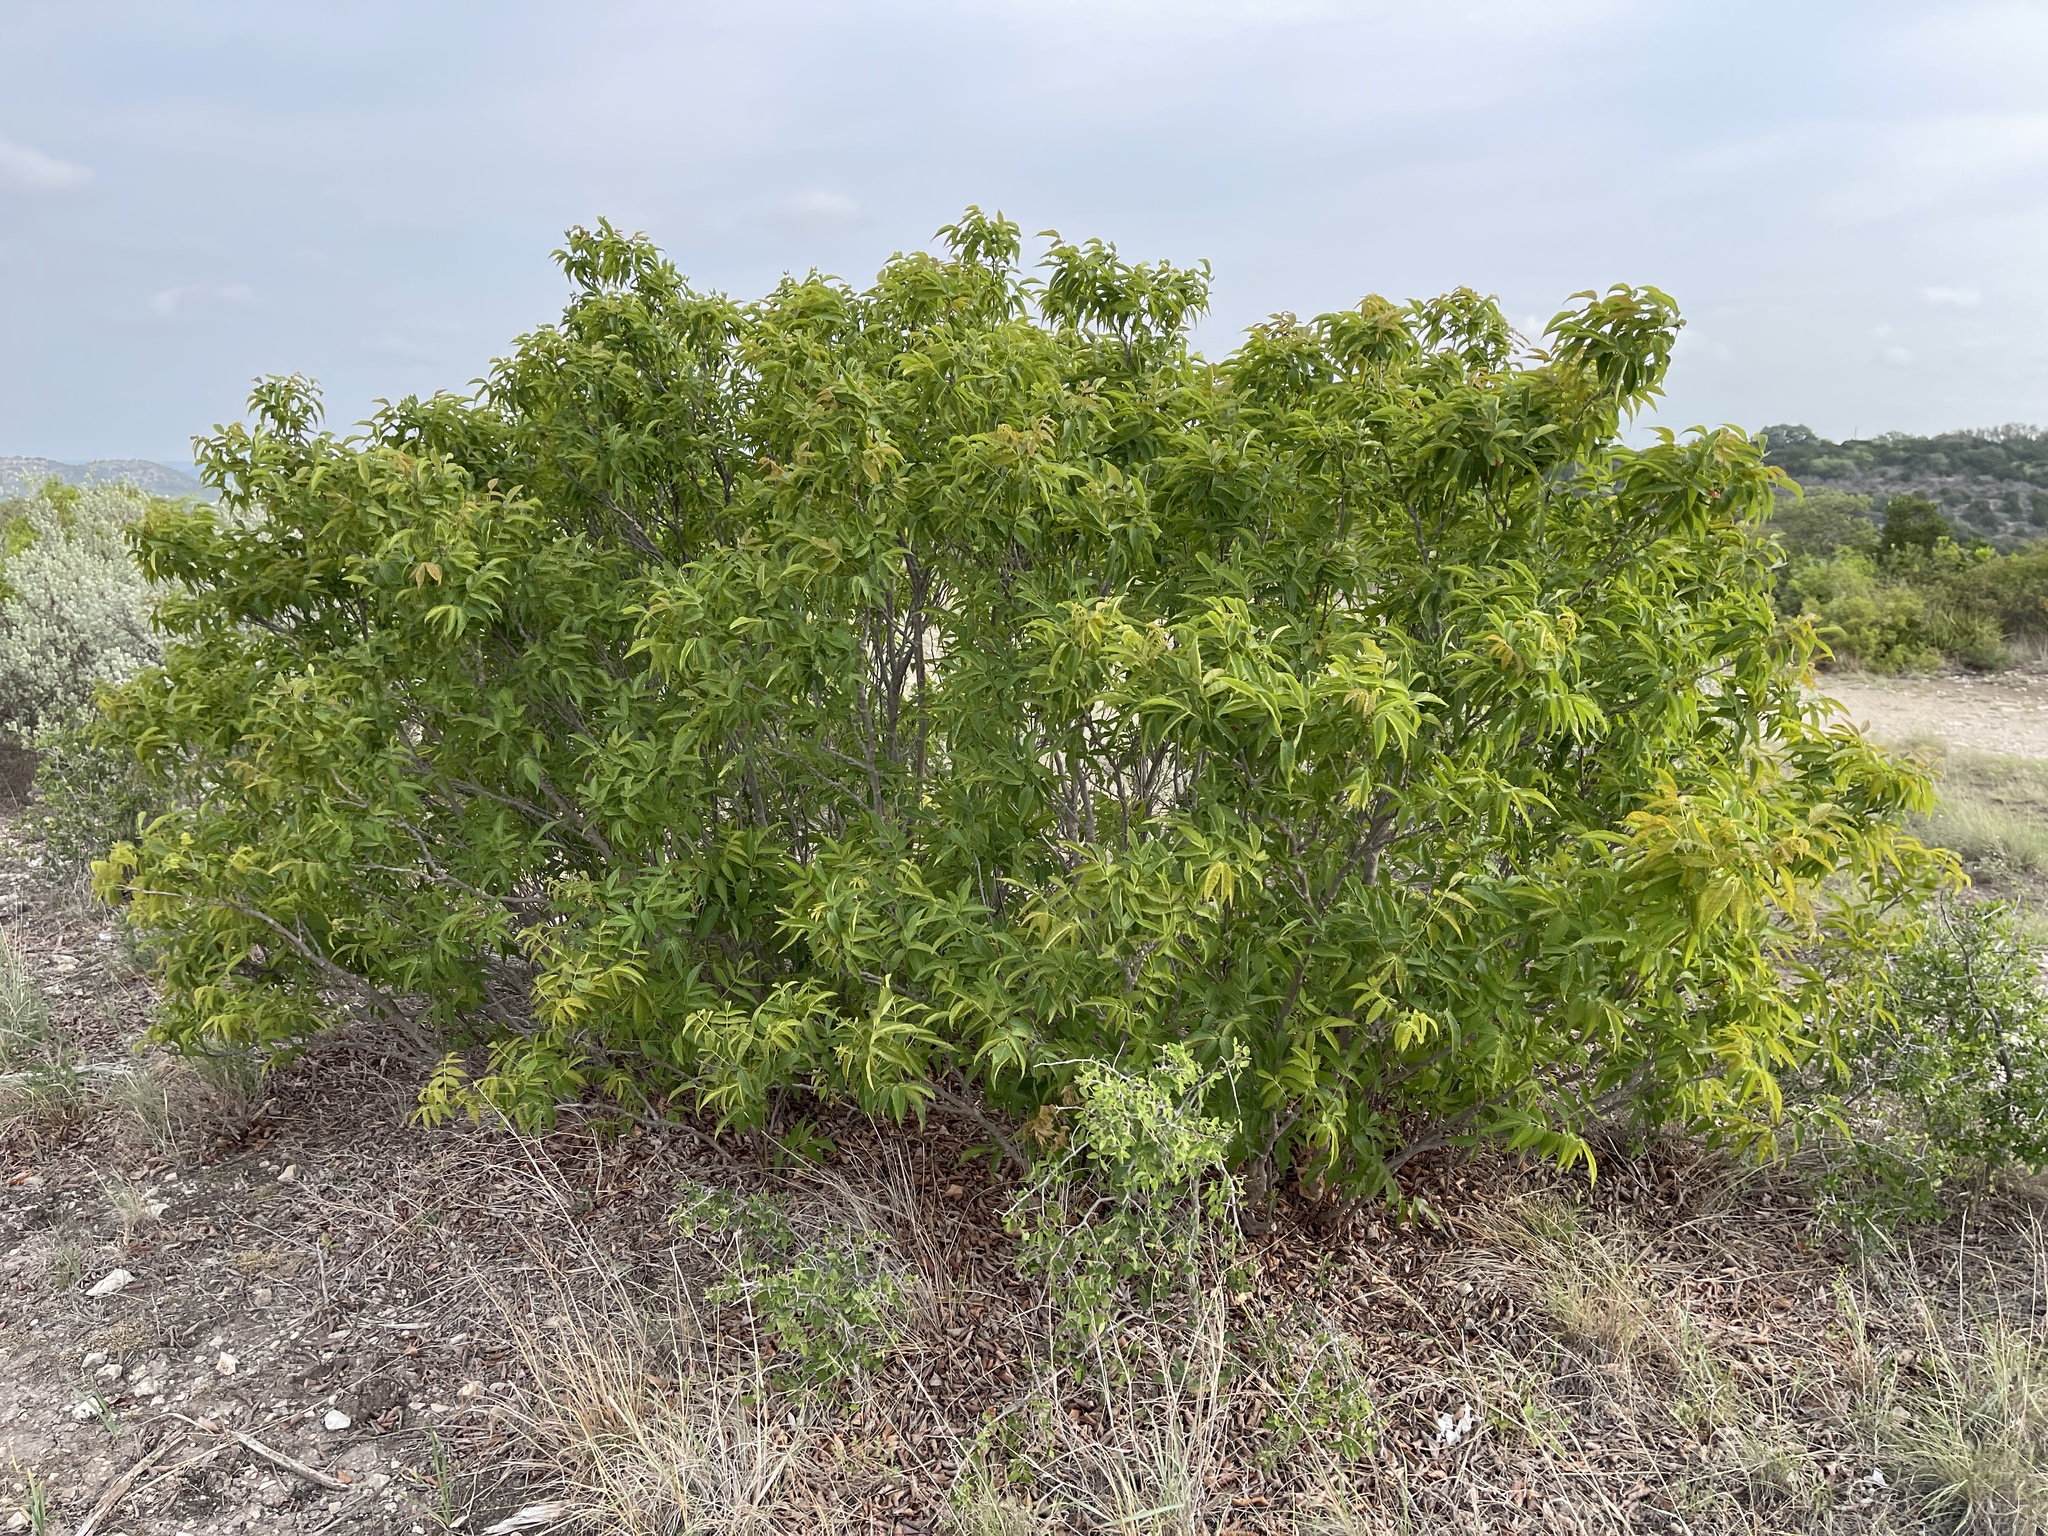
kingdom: Plantae
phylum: Tracheophyta
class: Magnoliopsida
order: Sapindales
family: Sapindaceae
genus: Ungnadia
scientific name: Ungnadia speciosa
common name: Texas-buckeye
